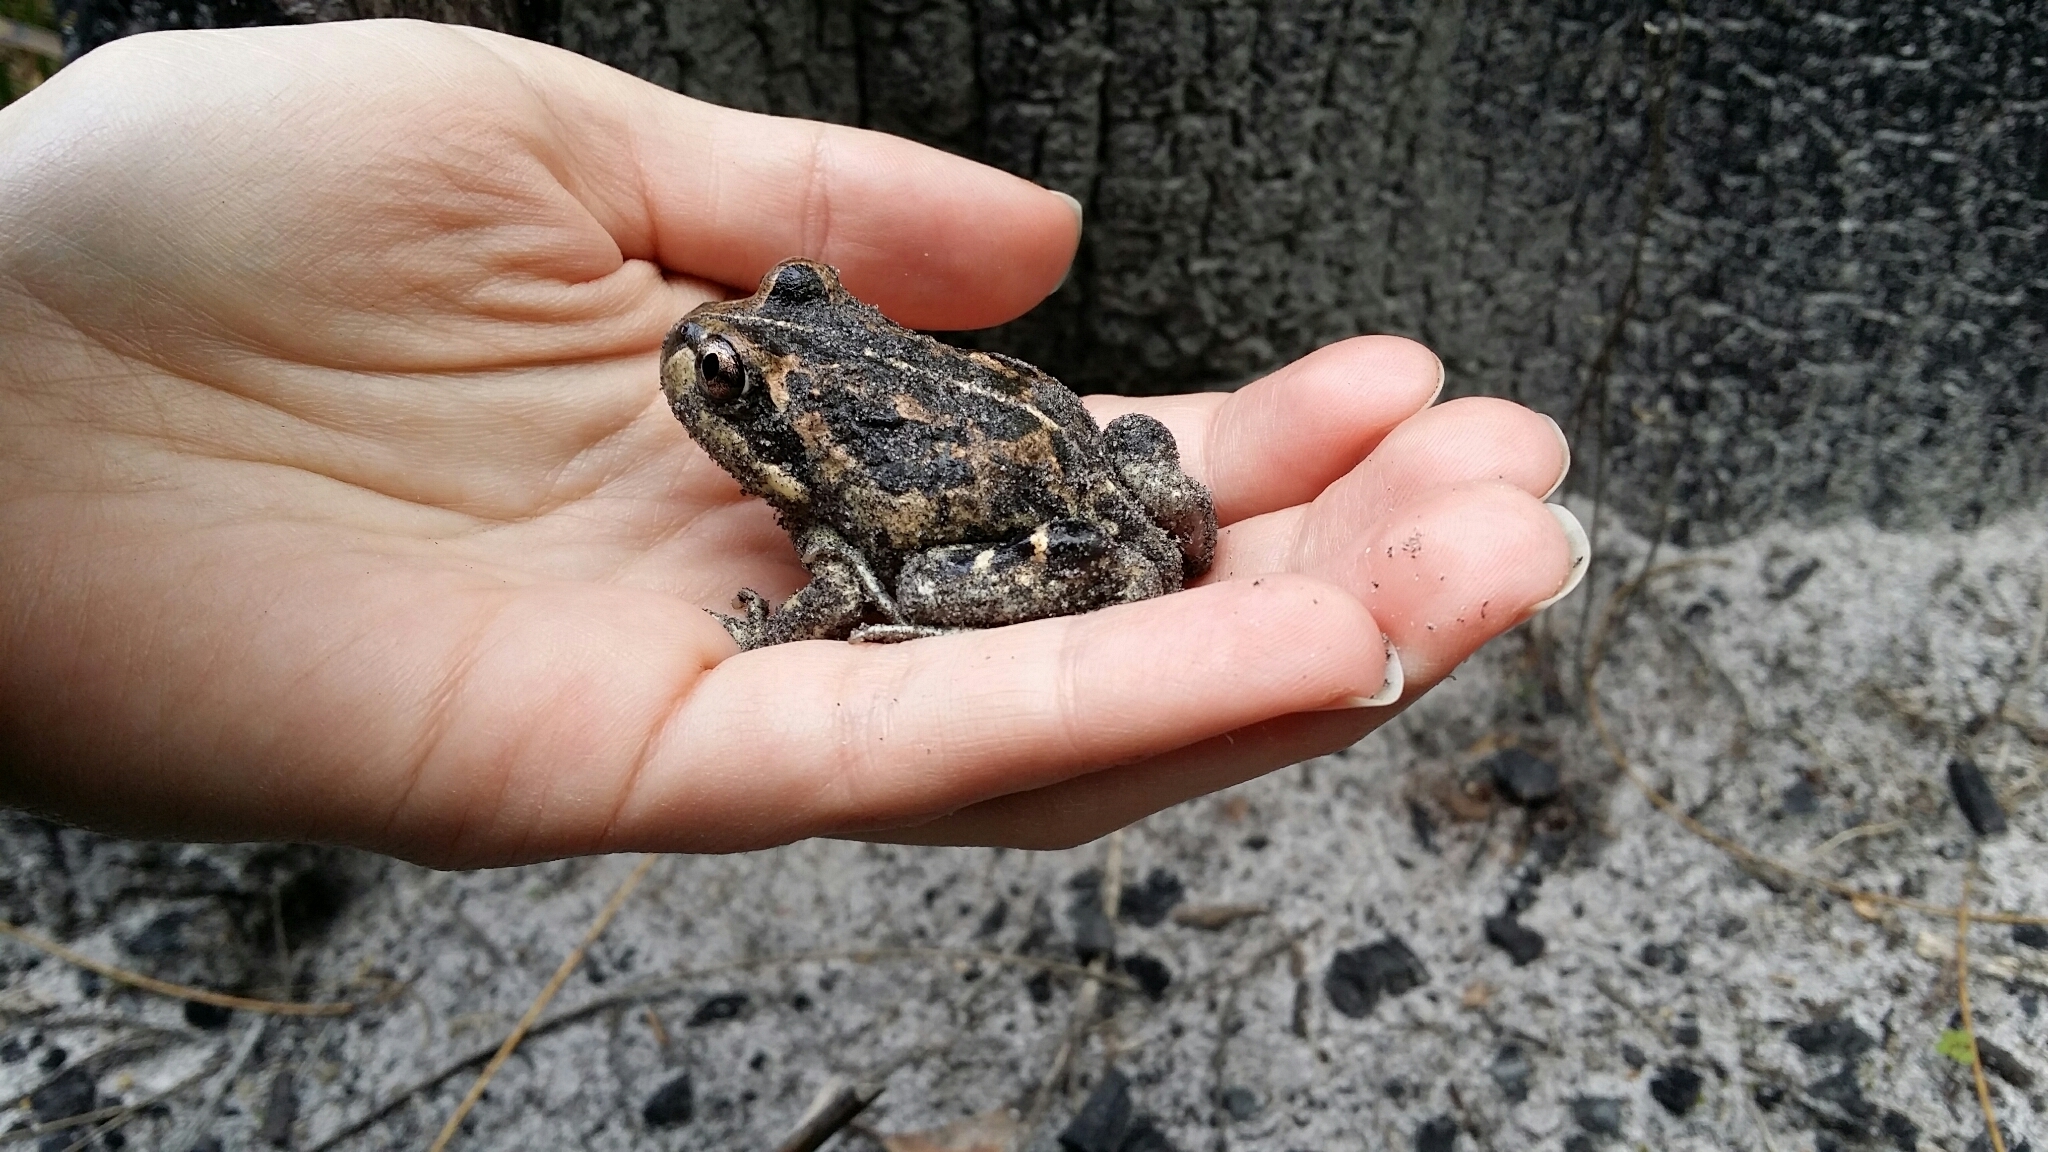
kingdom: Animalia
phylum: Chordata
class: Amphibia
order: Anura
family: Limnodynastidae
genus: Limnodynastes
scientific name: Limnodynastes dorsalis
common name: Banjo frog
